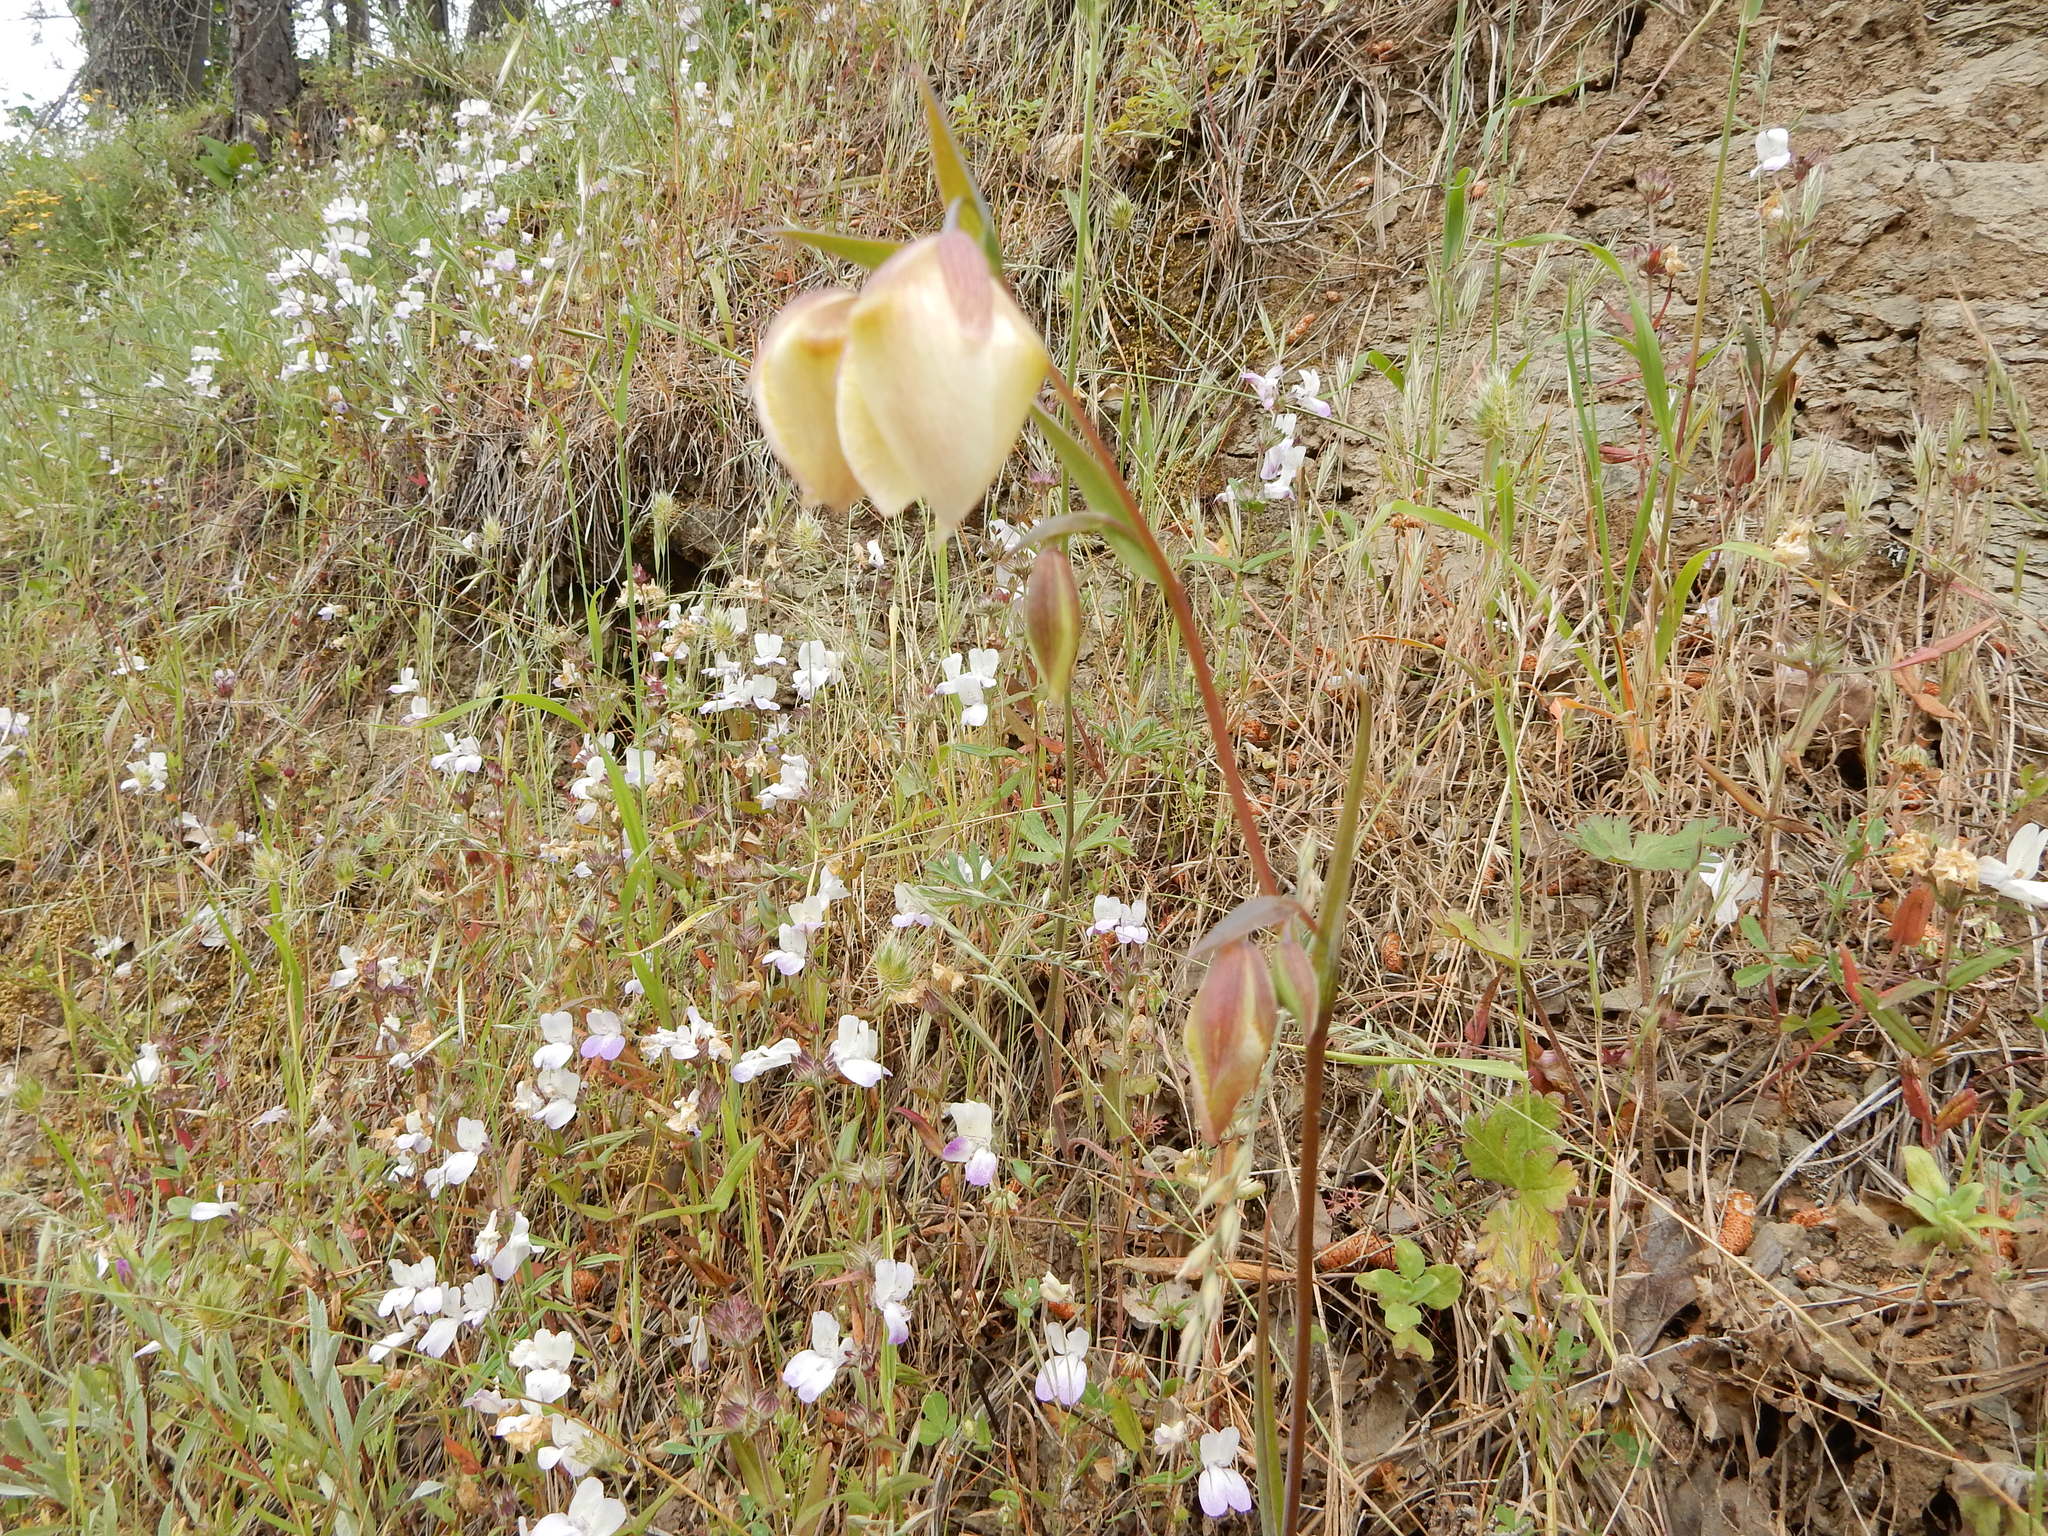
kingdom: Plantae
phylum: Tracheophyta
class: Liliopsida
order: Liliales
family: Liliaceae
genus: Calochortus
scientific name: Calochortus albus
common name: Fairy-lantern
